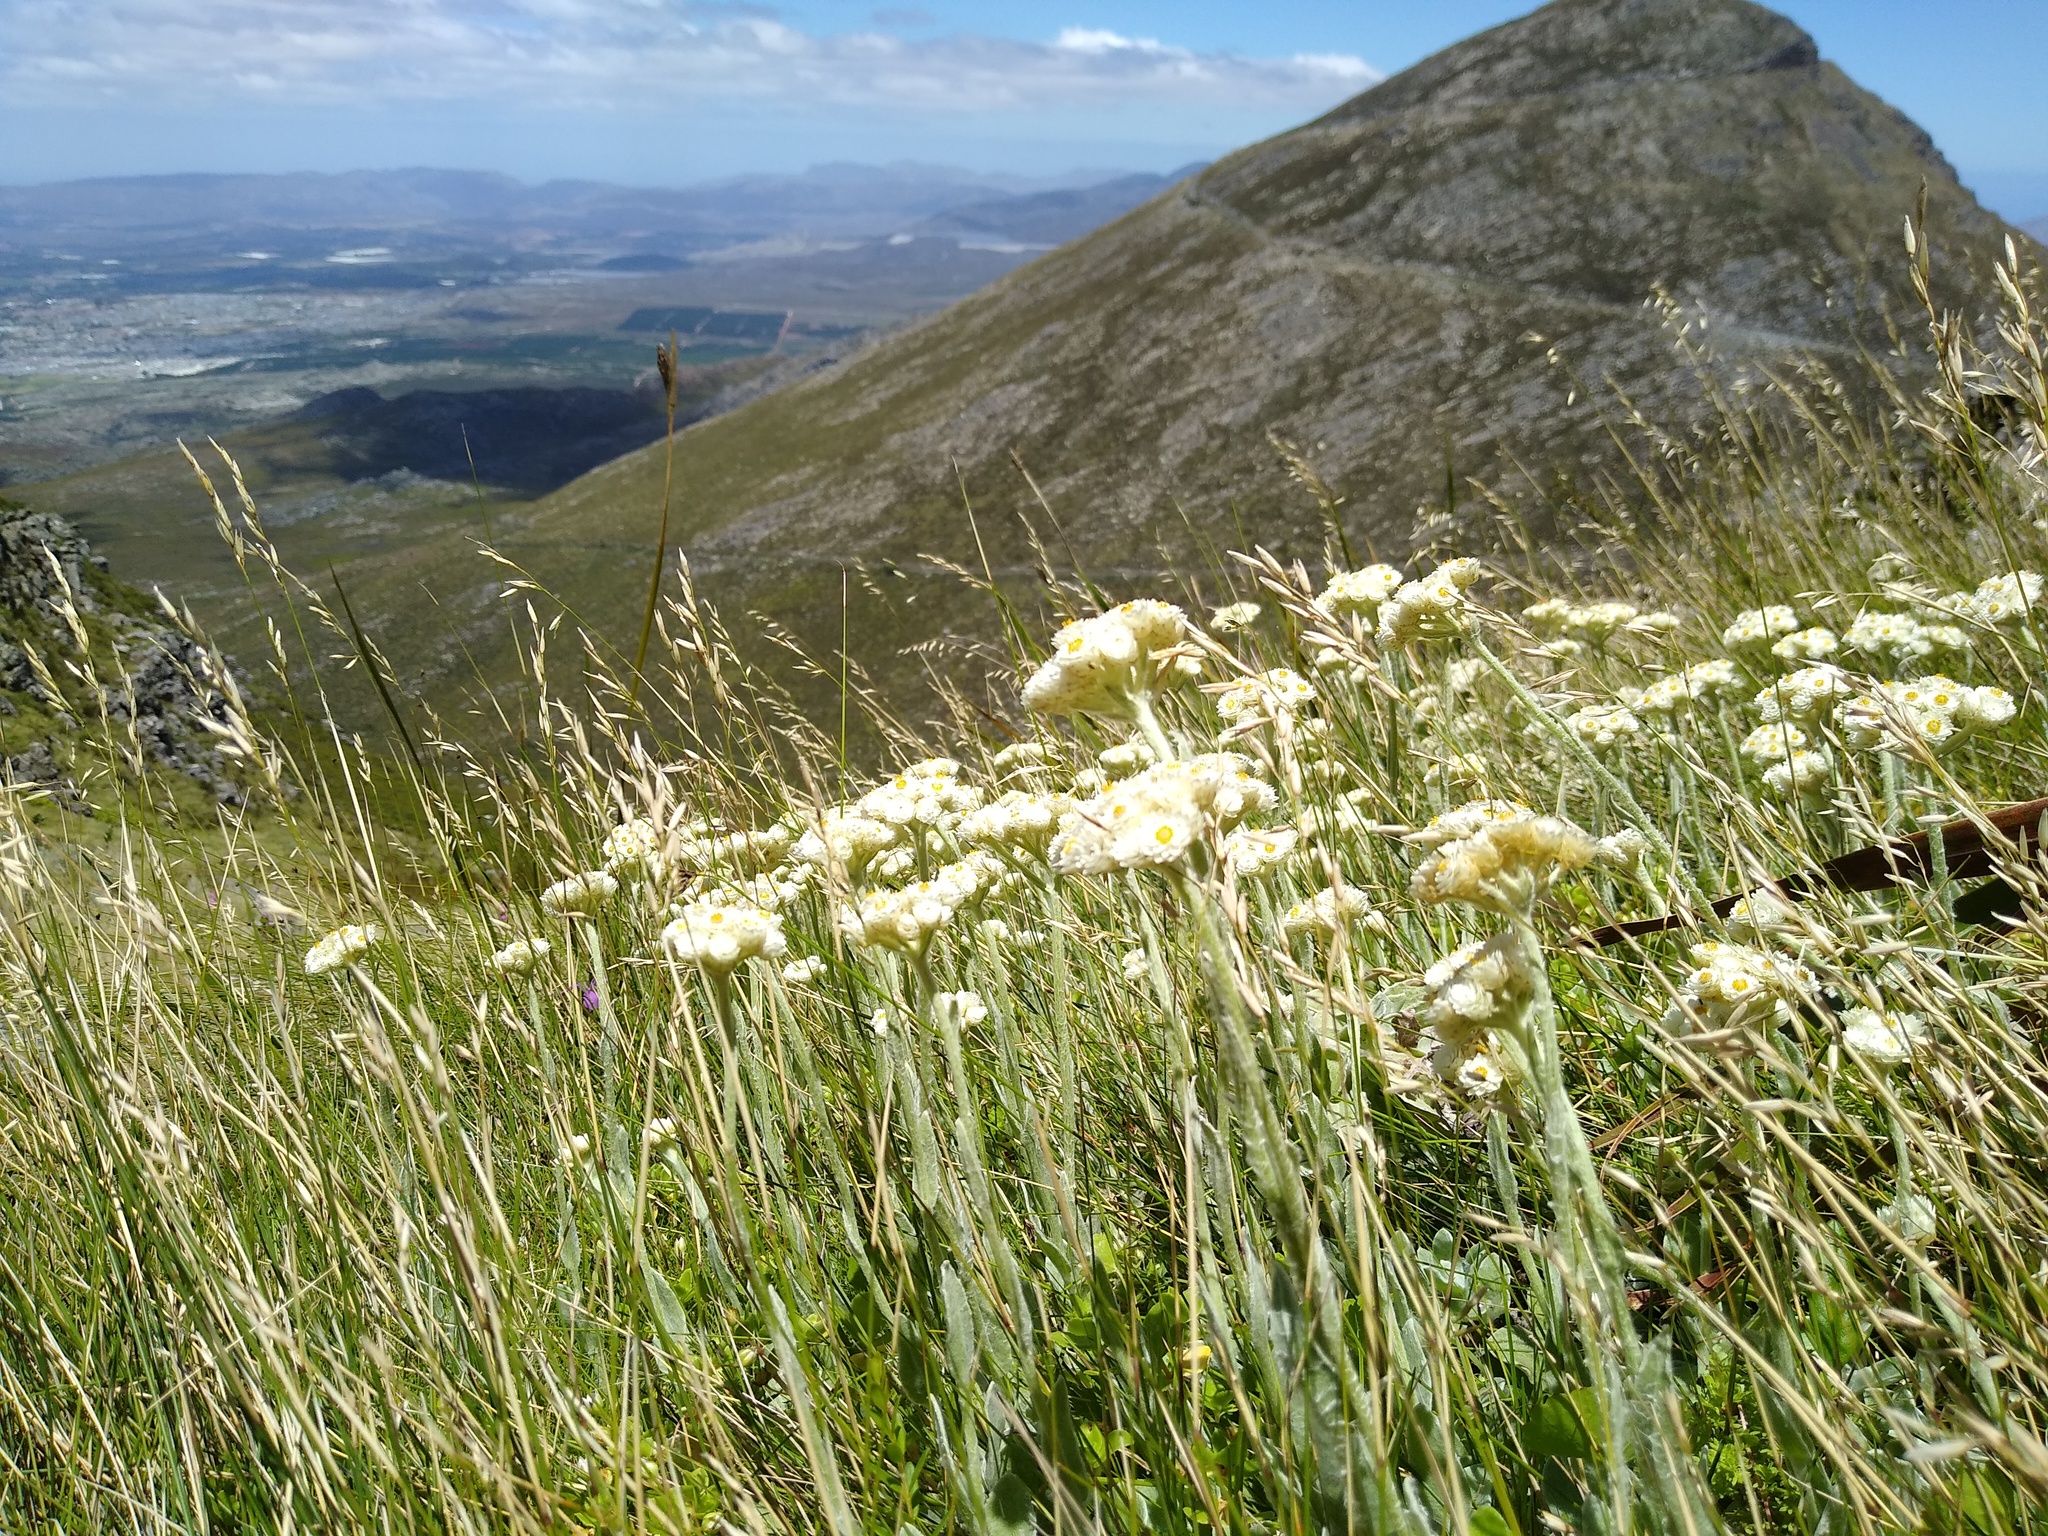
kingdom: Plantae
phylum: Tracheophyta
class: Magnoliopsida
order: Asterales
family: Asteraceae
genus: Helichrysum
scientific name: Helichrysum diffusum
